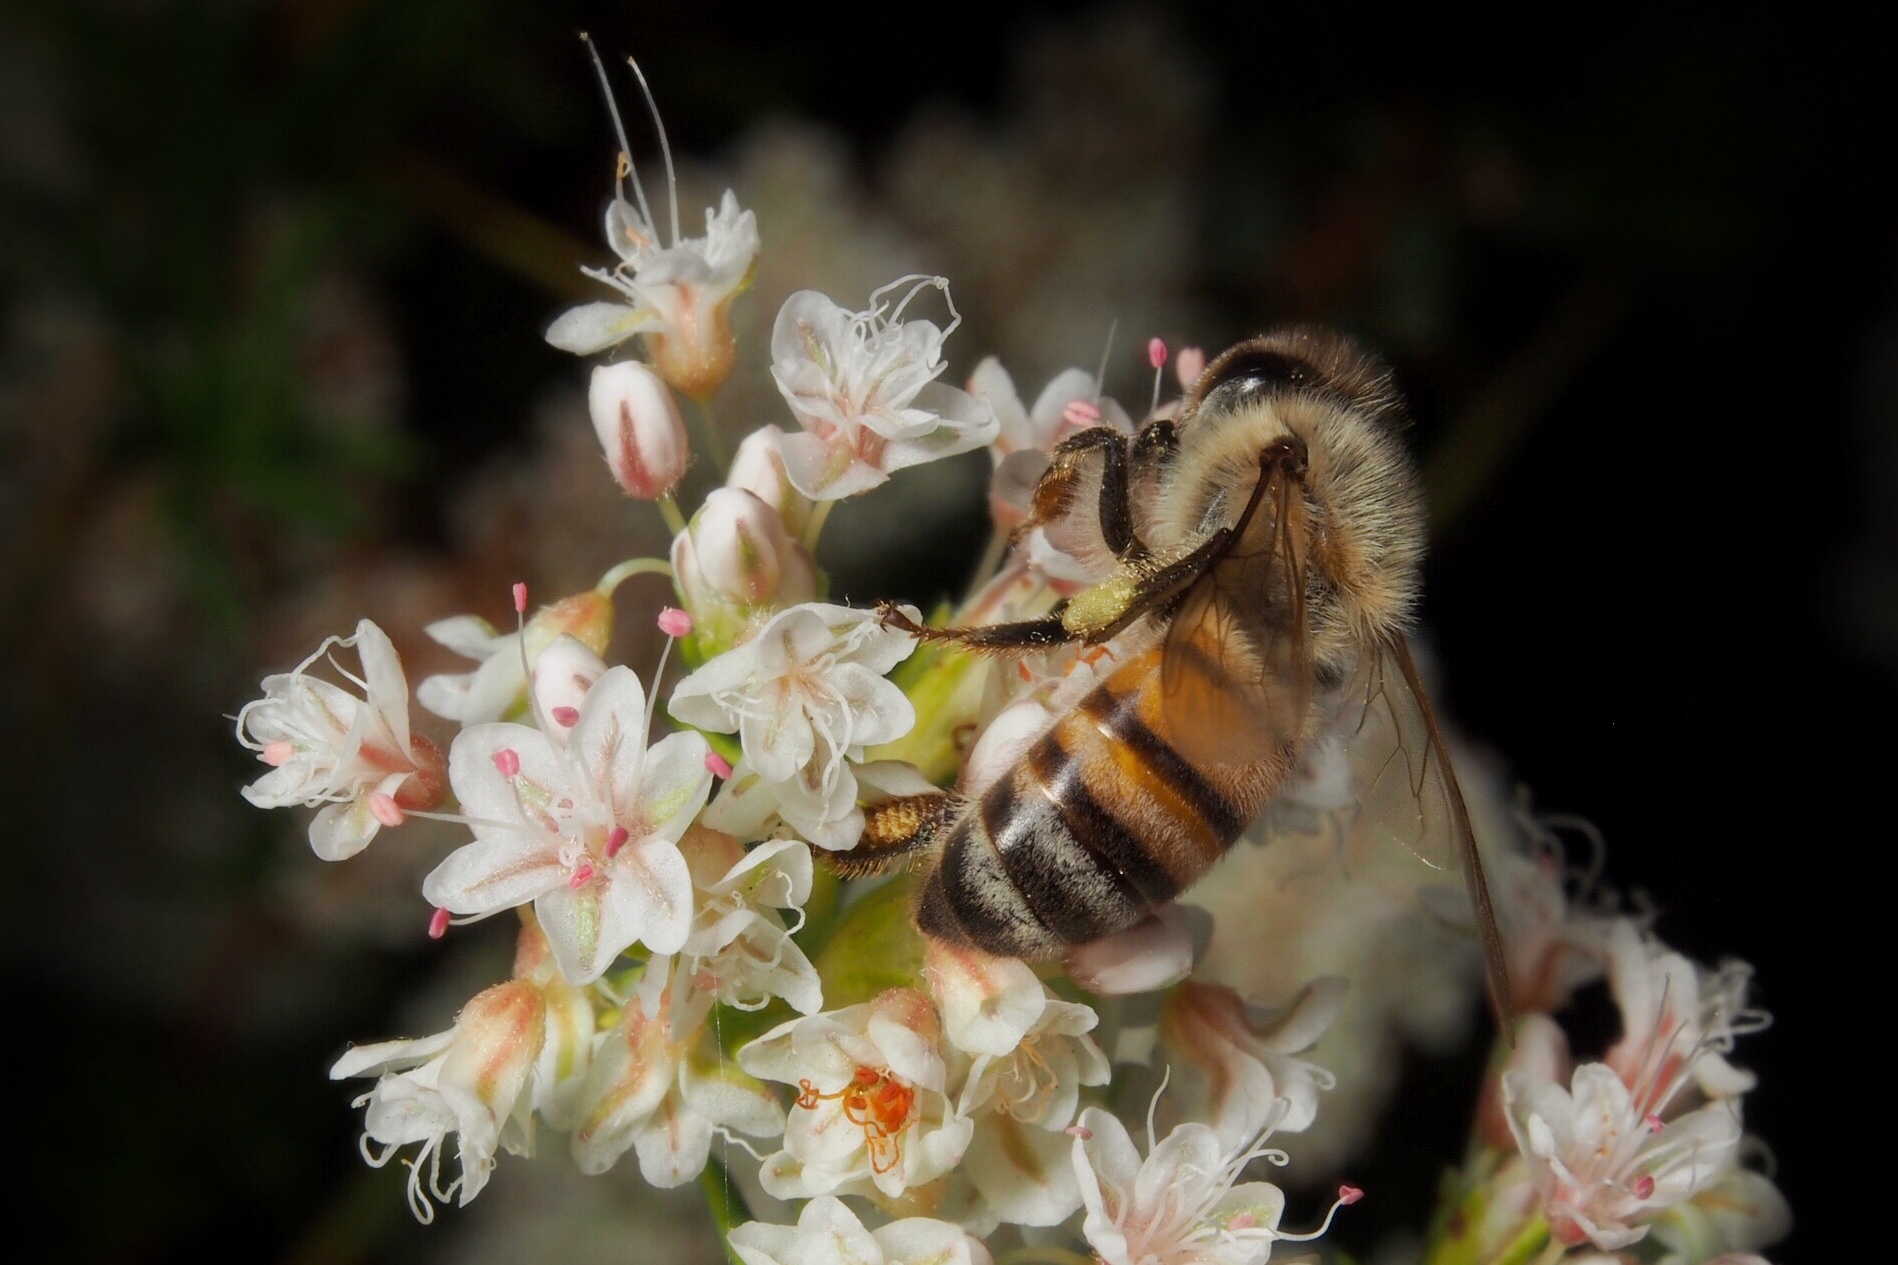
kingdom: Animalia
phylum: Arthropoda
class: Insecta
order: Hymenoptera
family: Apidae
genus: Apis
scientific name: Apis mellifera
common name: Honey bee
